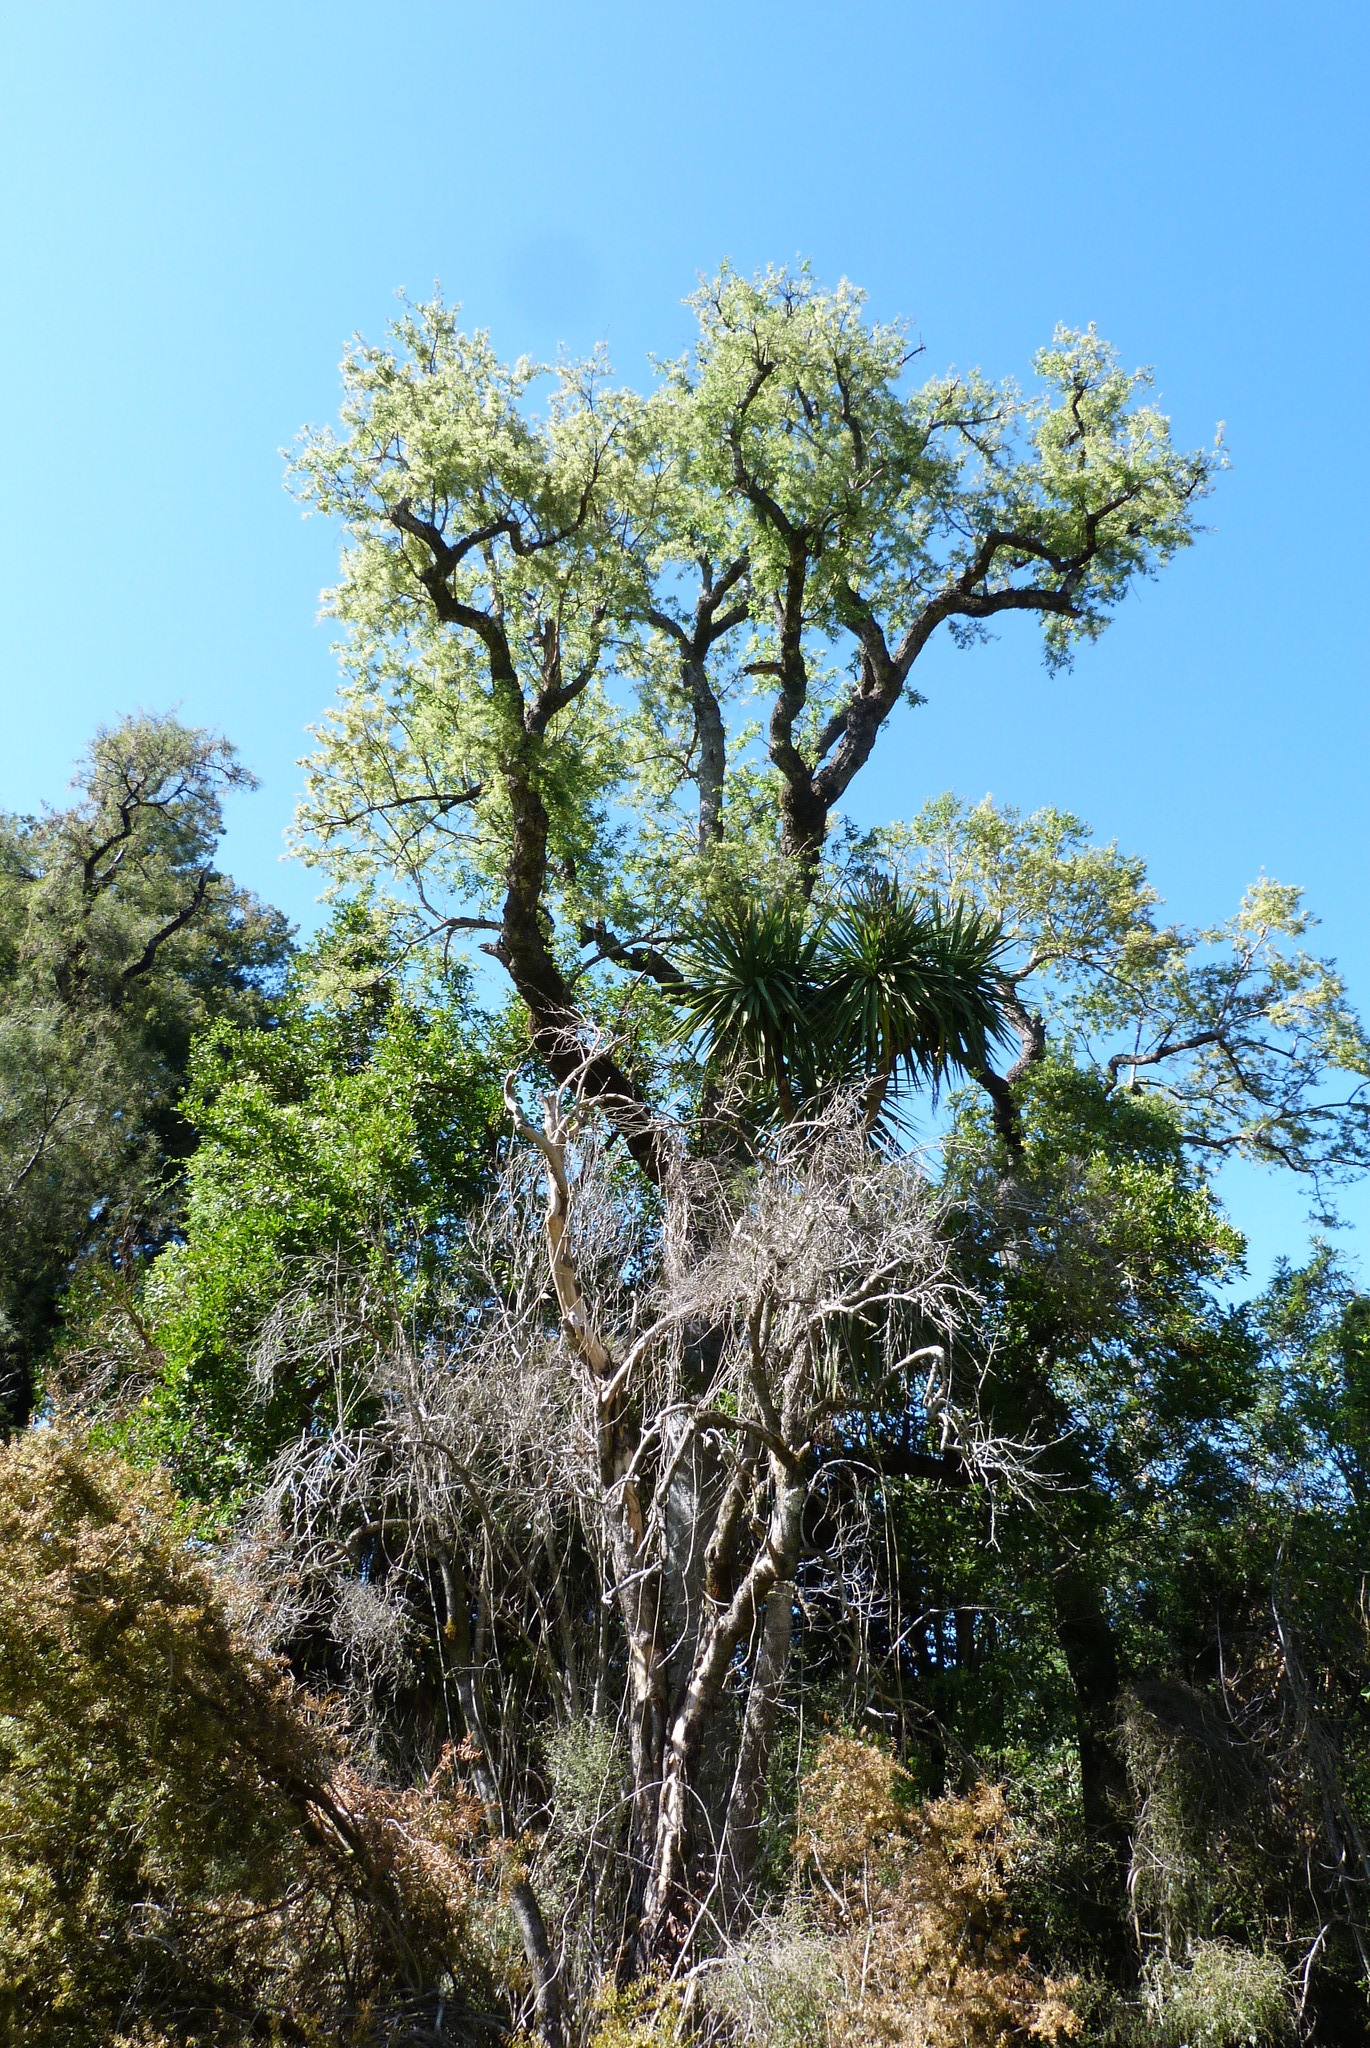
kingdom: Plantae
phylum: Tracheophyta
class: Magnoliopsida
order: Malvales
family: Malvaceae
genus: Plagianthus
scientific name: Plagianthus regius
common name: Manatu
